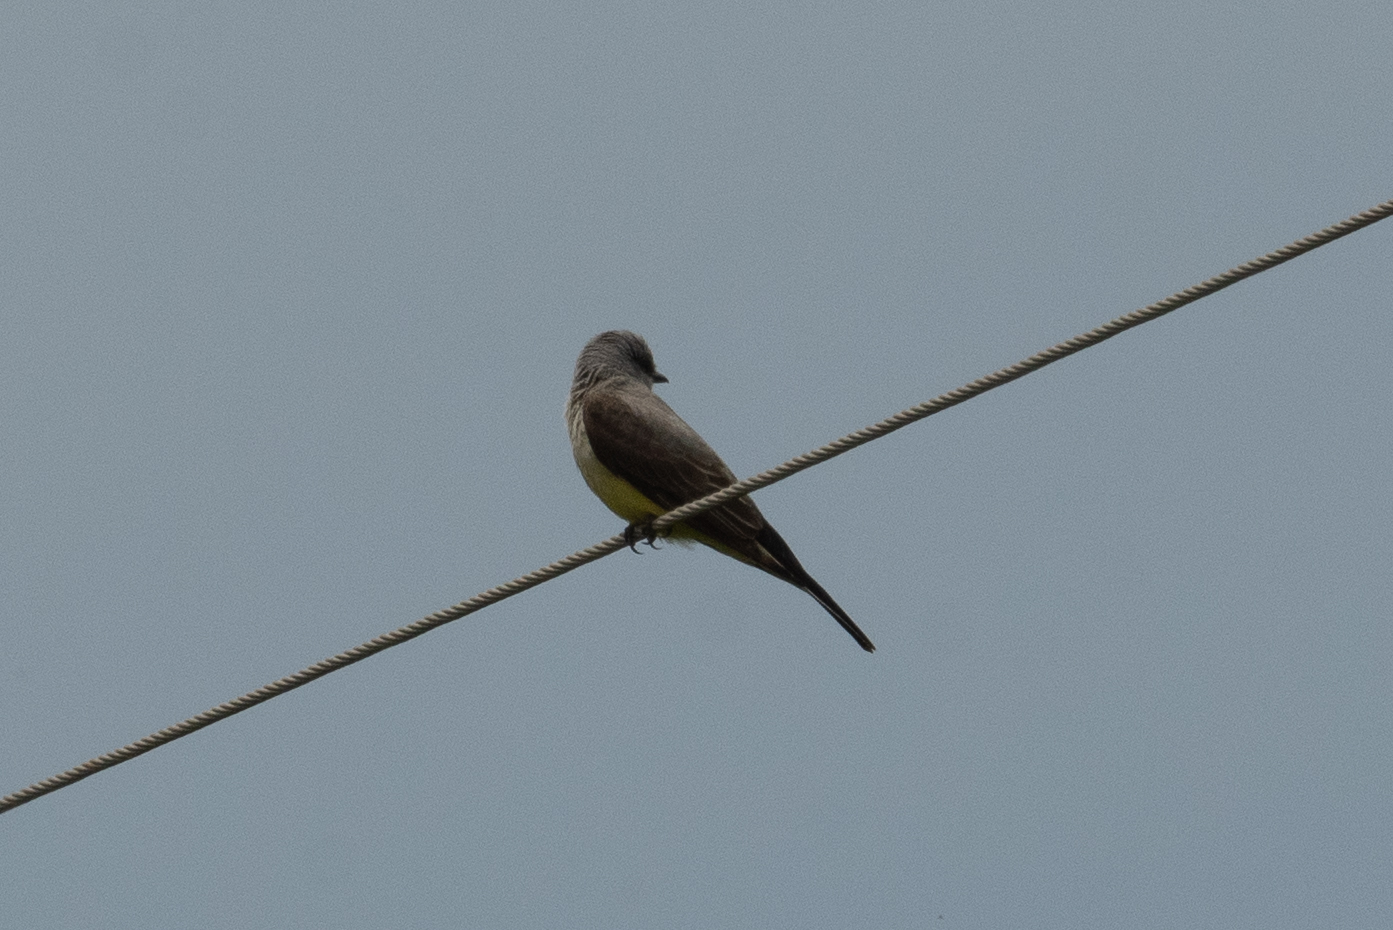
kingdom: Animalia
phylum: Chordata
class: Aves
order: Passeriformes
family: Tyrannidae
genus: Tyrannus
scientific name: Tyrannus verticalis
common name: Western kingbird
